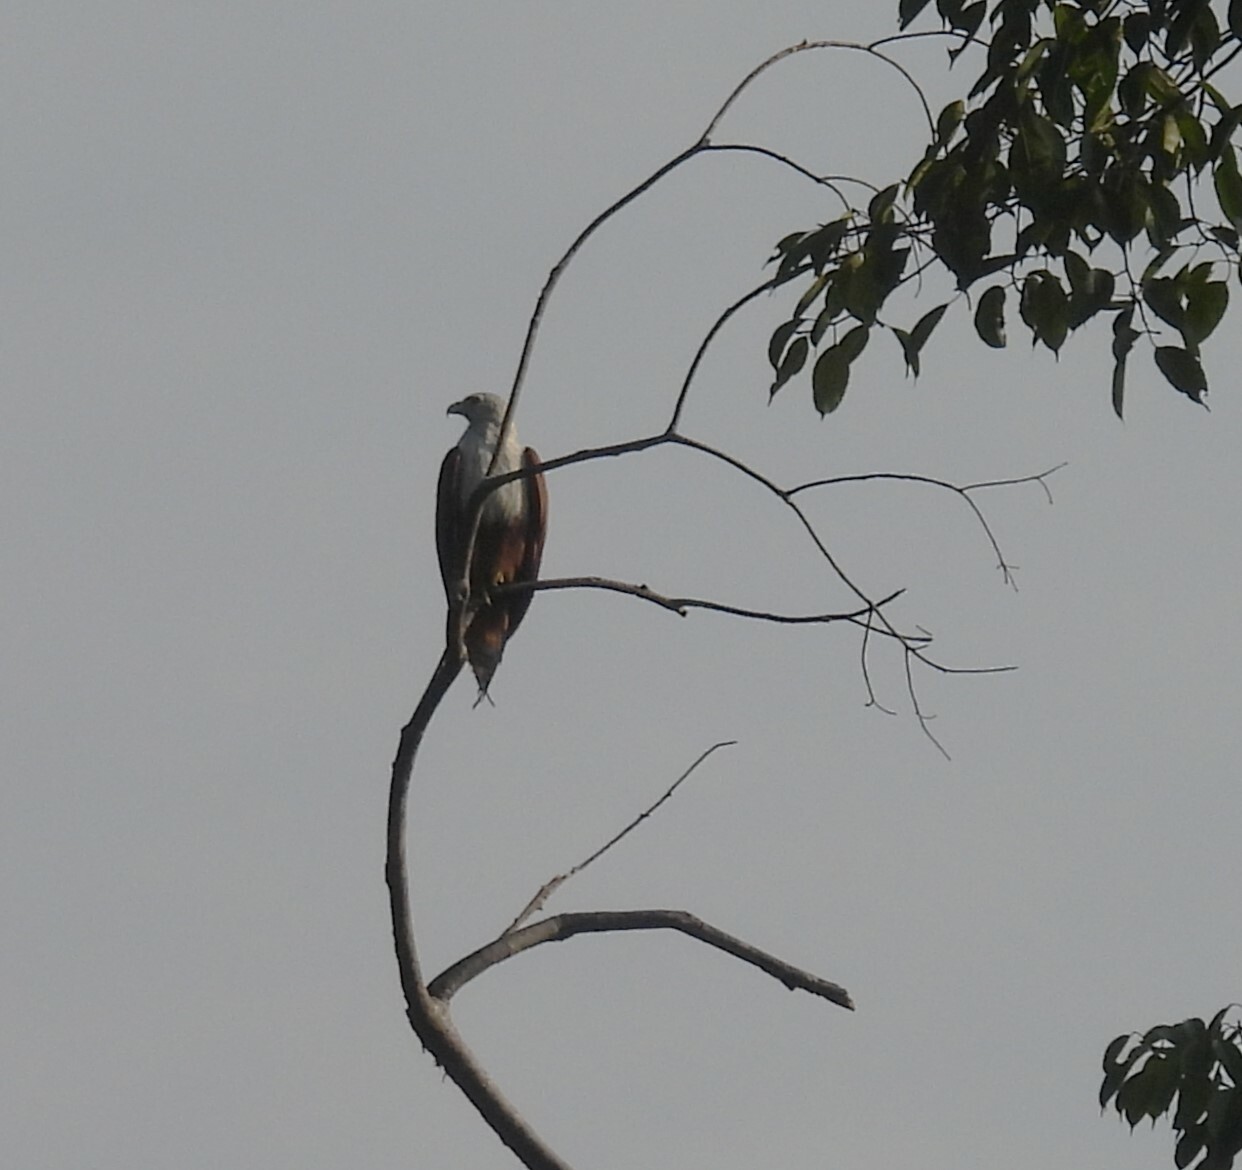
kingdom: Animalia
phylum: Chordata
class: Aves
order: Accipitriformes
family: Accipitridae
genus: Haliastur
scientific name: Haliastur indus
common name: Brahminy kite
